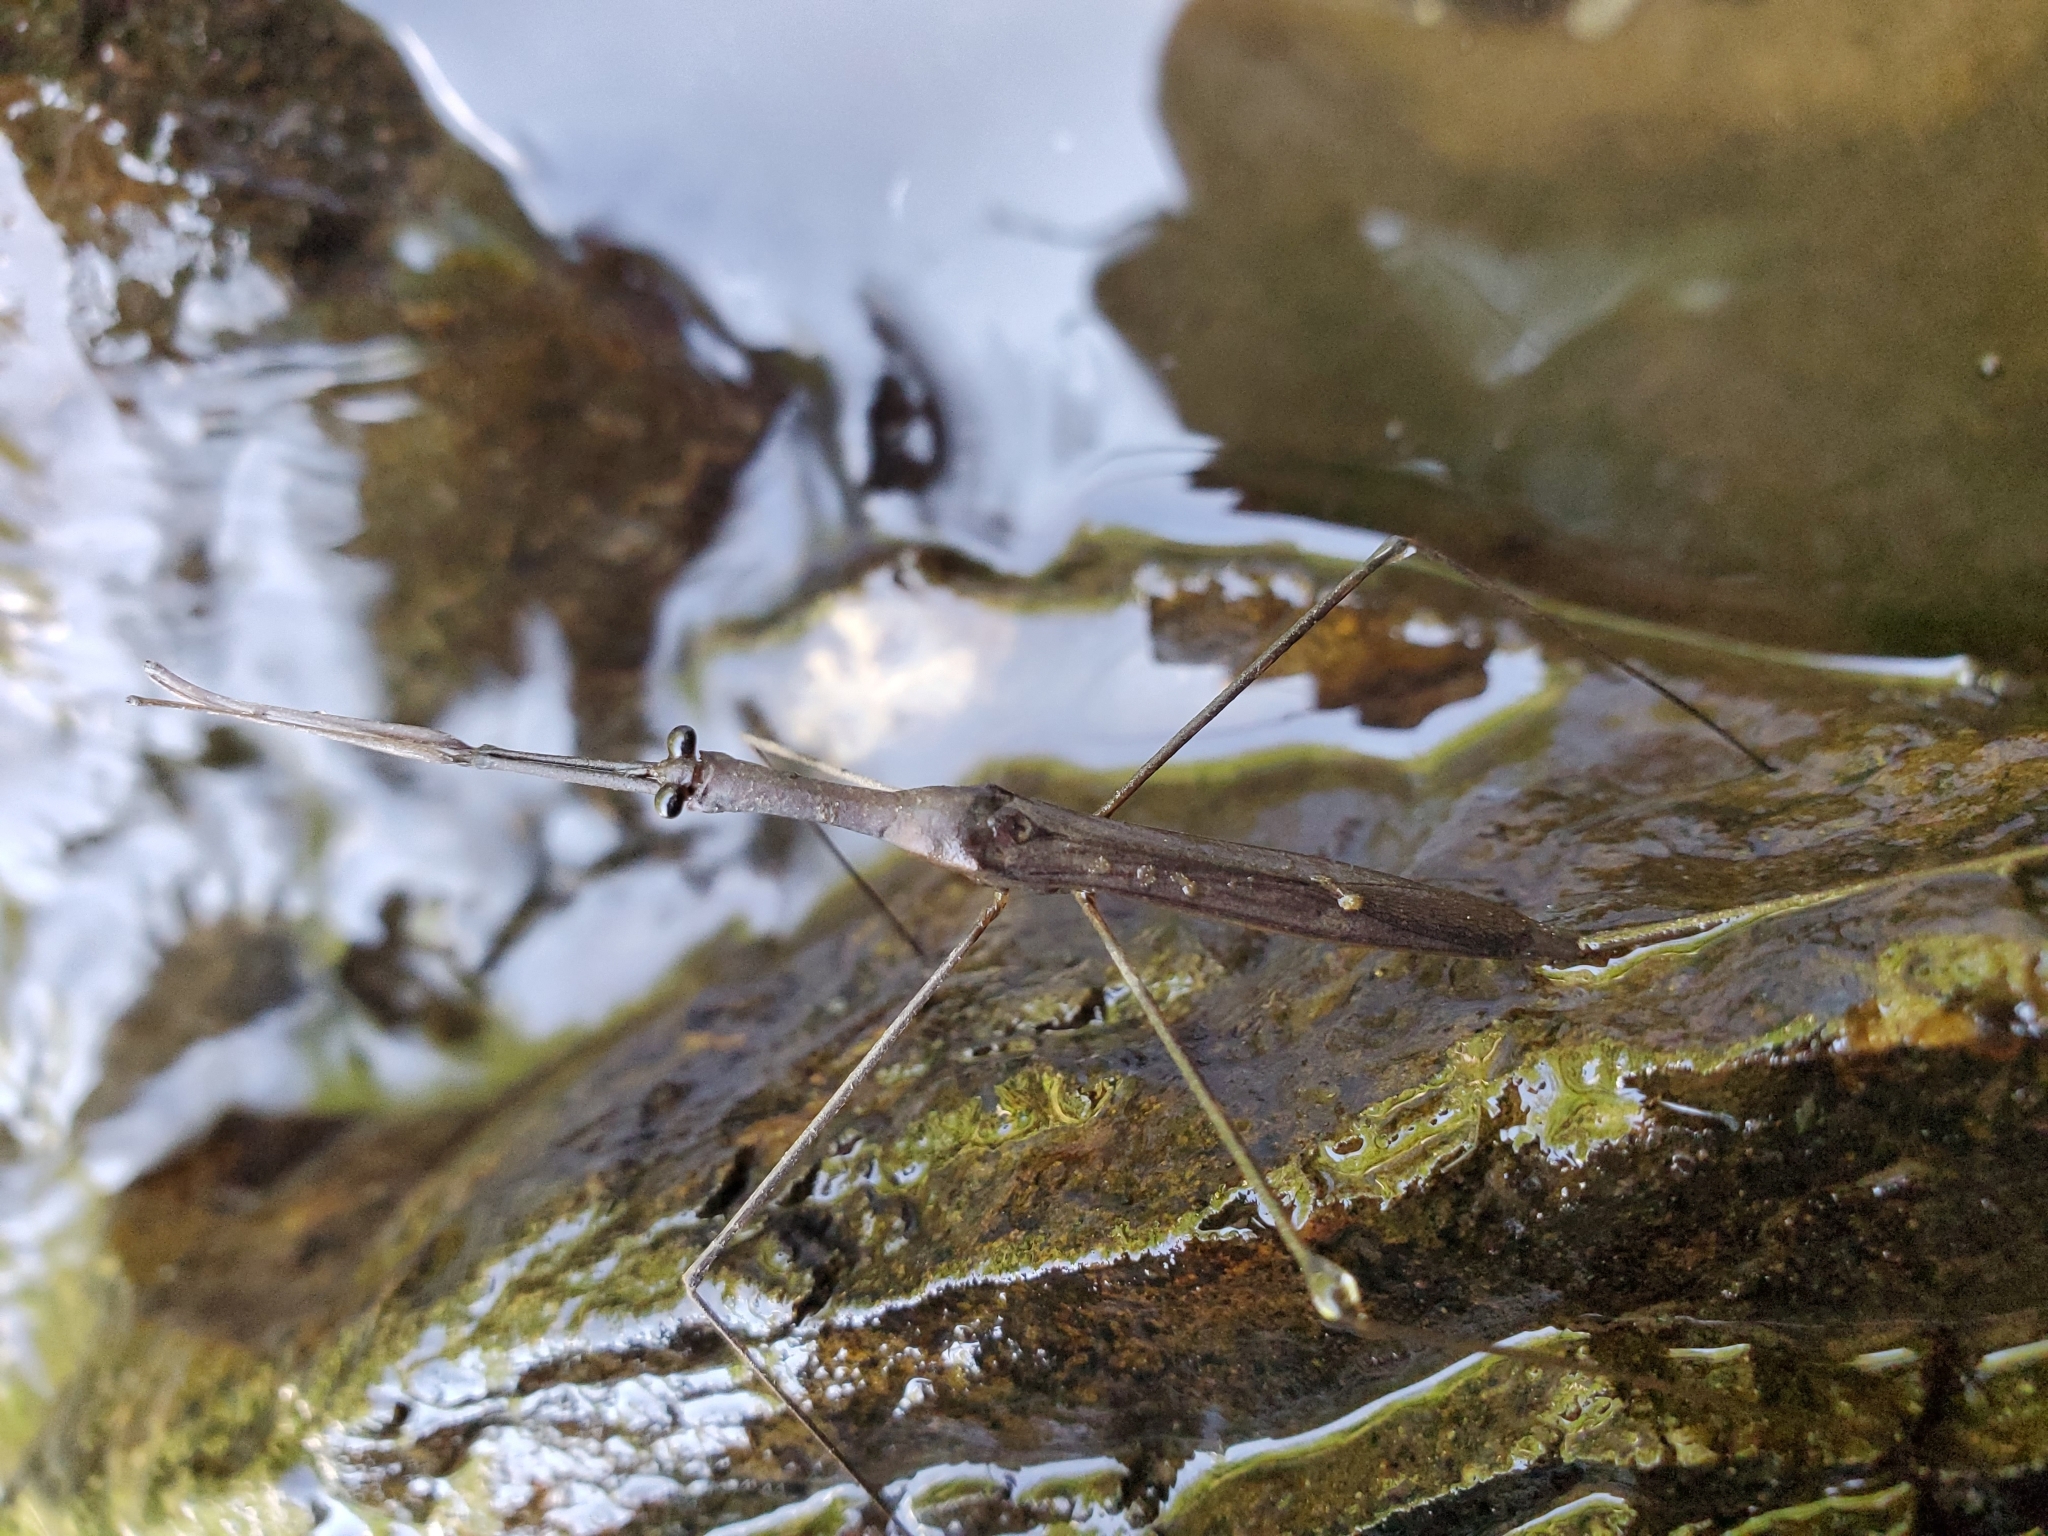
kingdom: Animalia
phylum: Arthropoda
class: Insecta
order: Hemiptera
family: Nepidae
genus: Ranatra
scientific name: Ranatra
